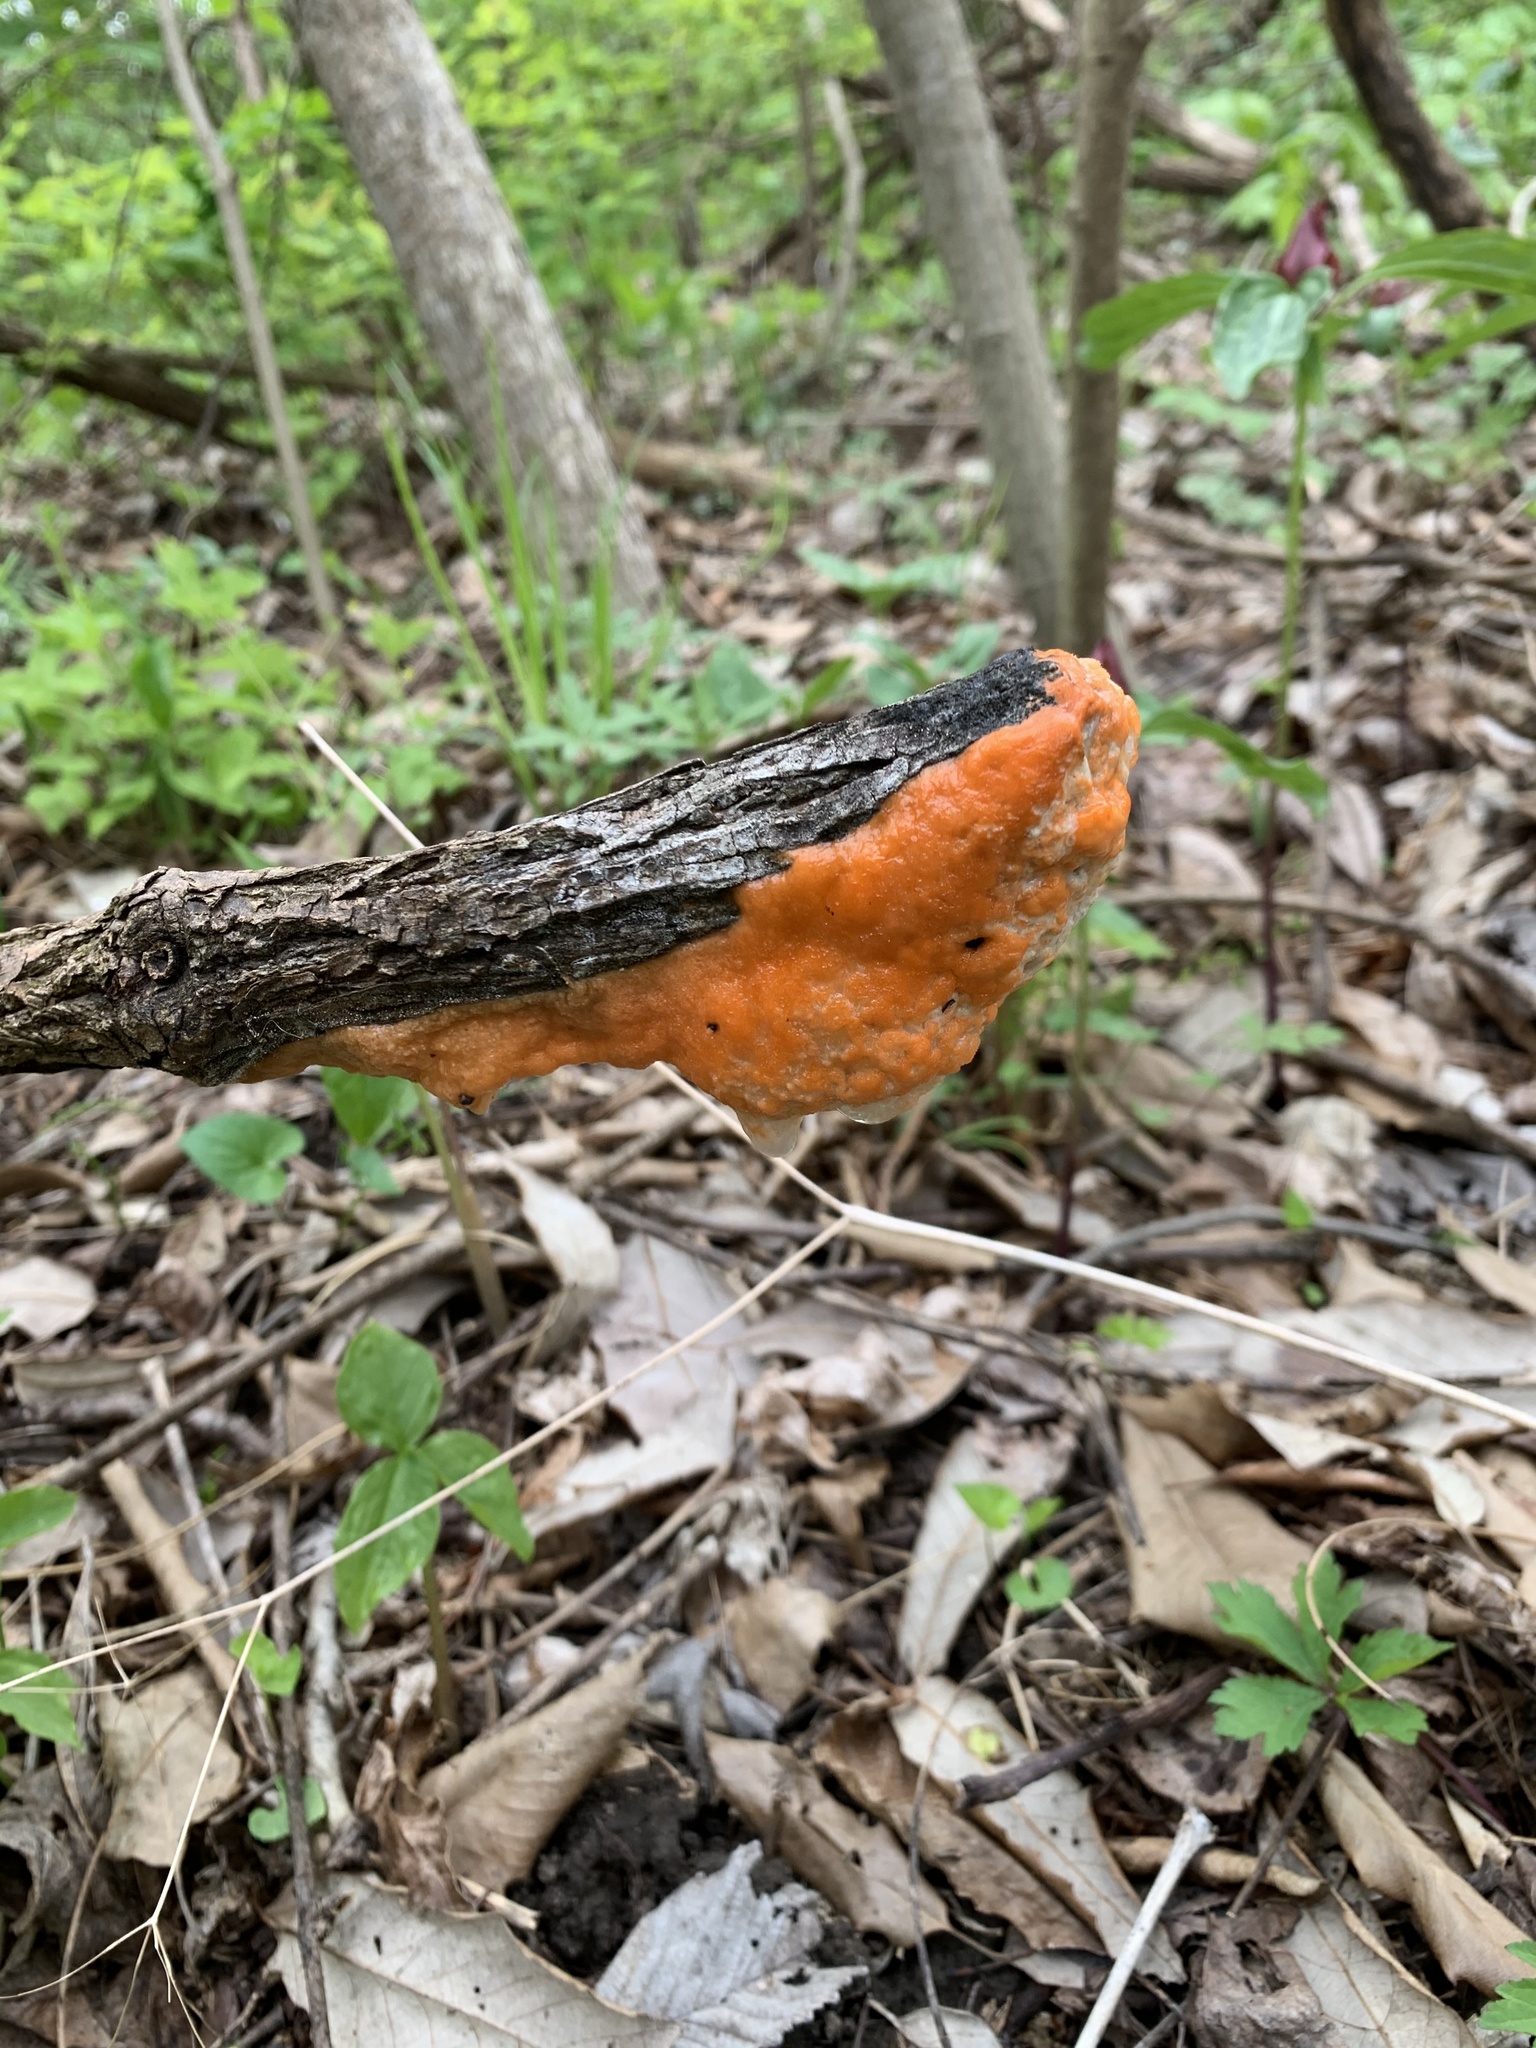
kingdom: Fungi
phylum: Ascomycota
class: Sordariomycetes
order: Hypocreales
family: Nectriaceae
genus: Fusicolla
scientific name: Fusicolla merismoides
